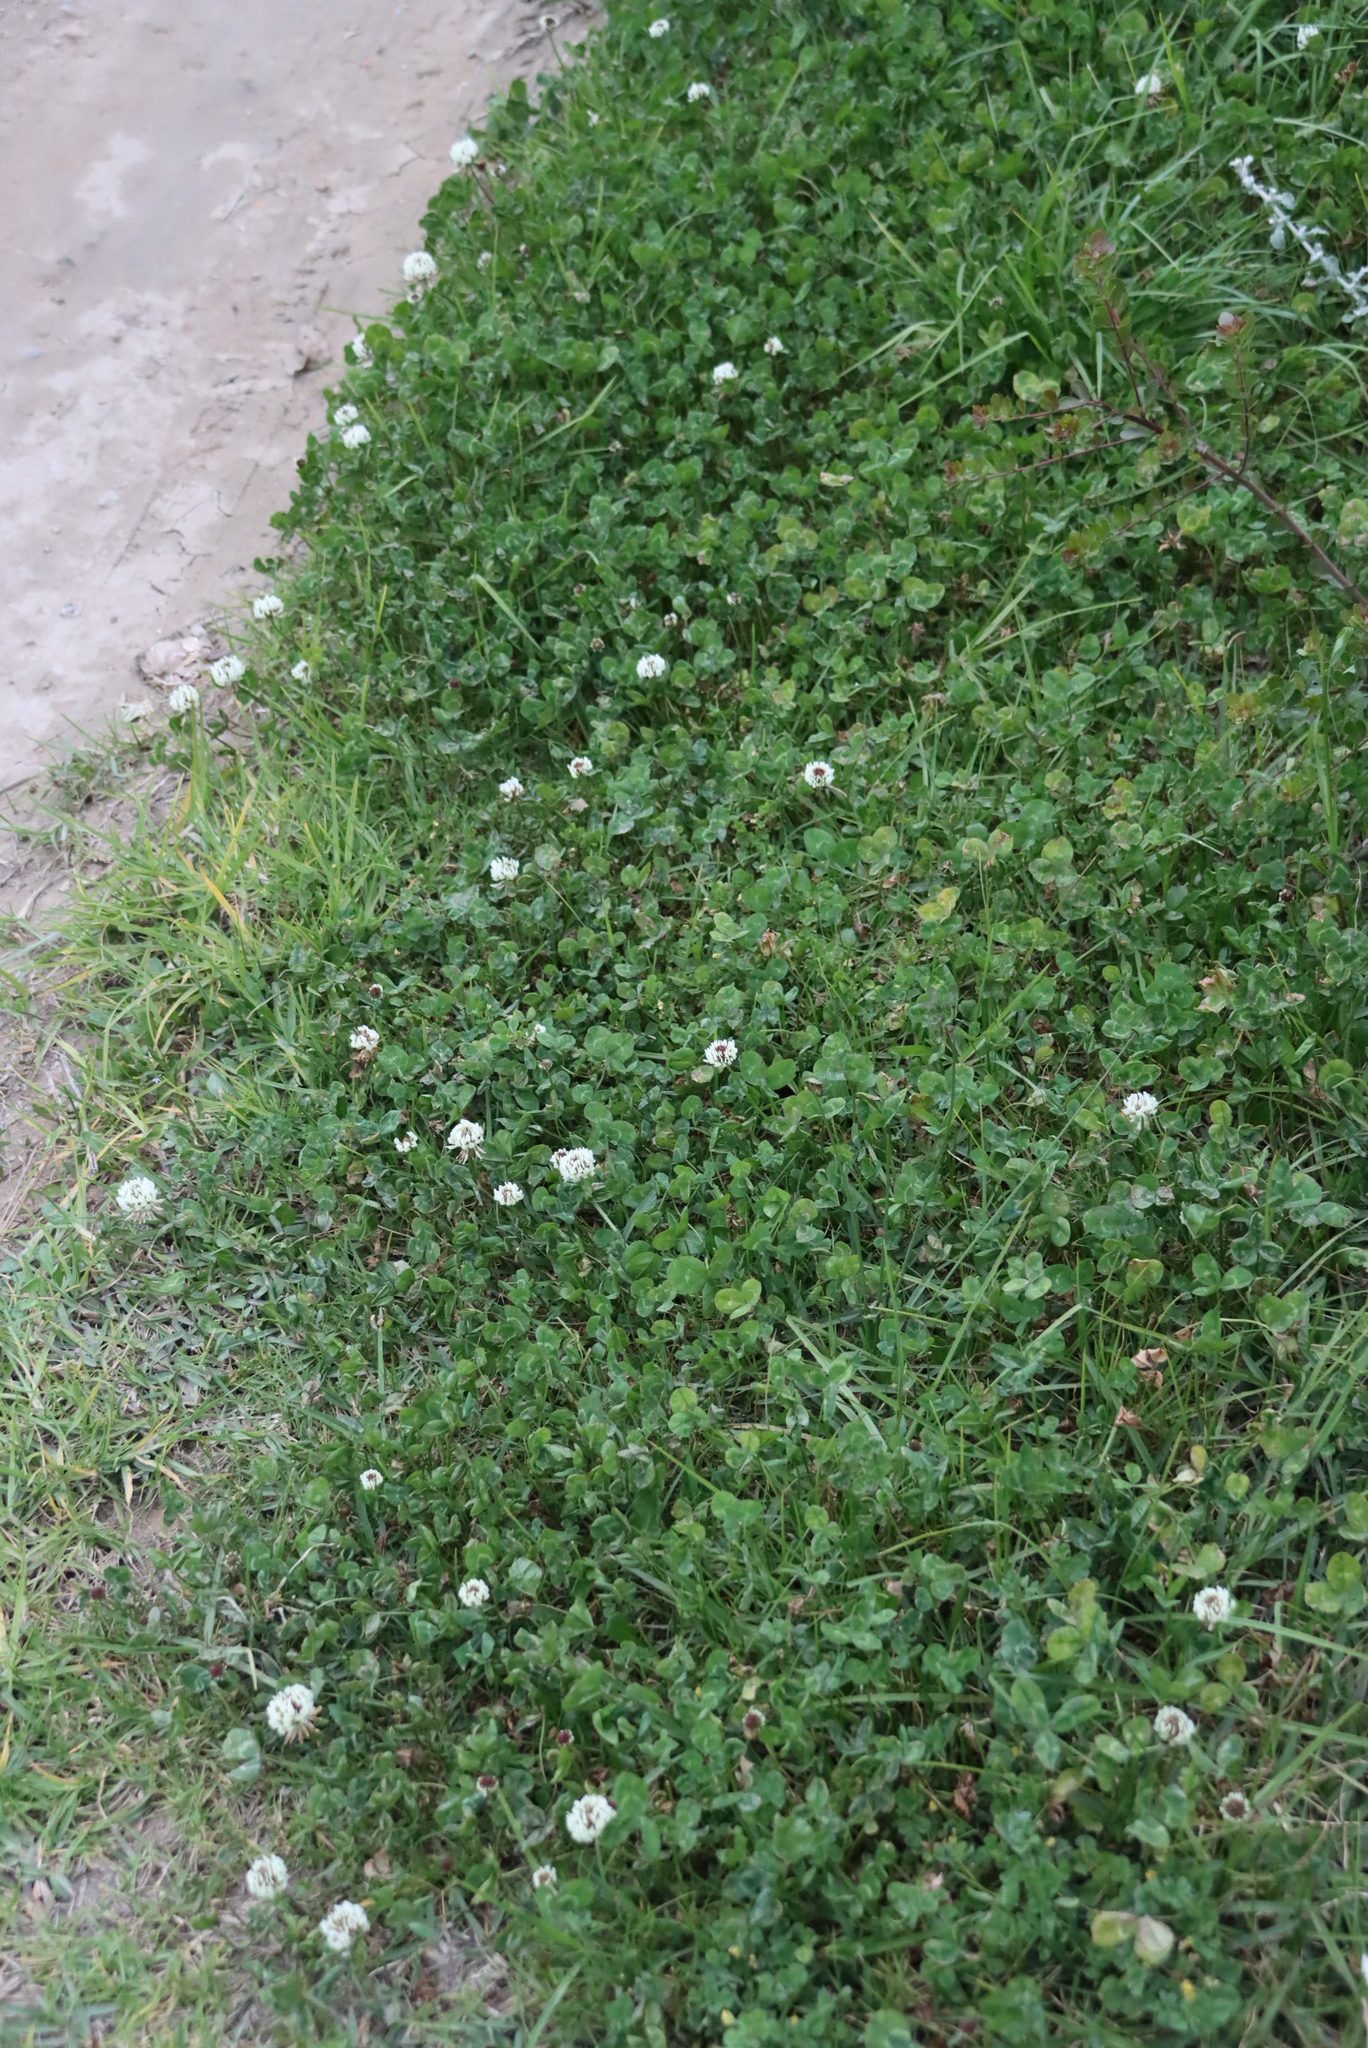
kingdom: Plantae
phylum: Tracheophyta
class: Magnoliopsida
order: Fabales
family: Fabaceae
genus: Trifolium
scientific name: Trifolium repens
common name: White clover
